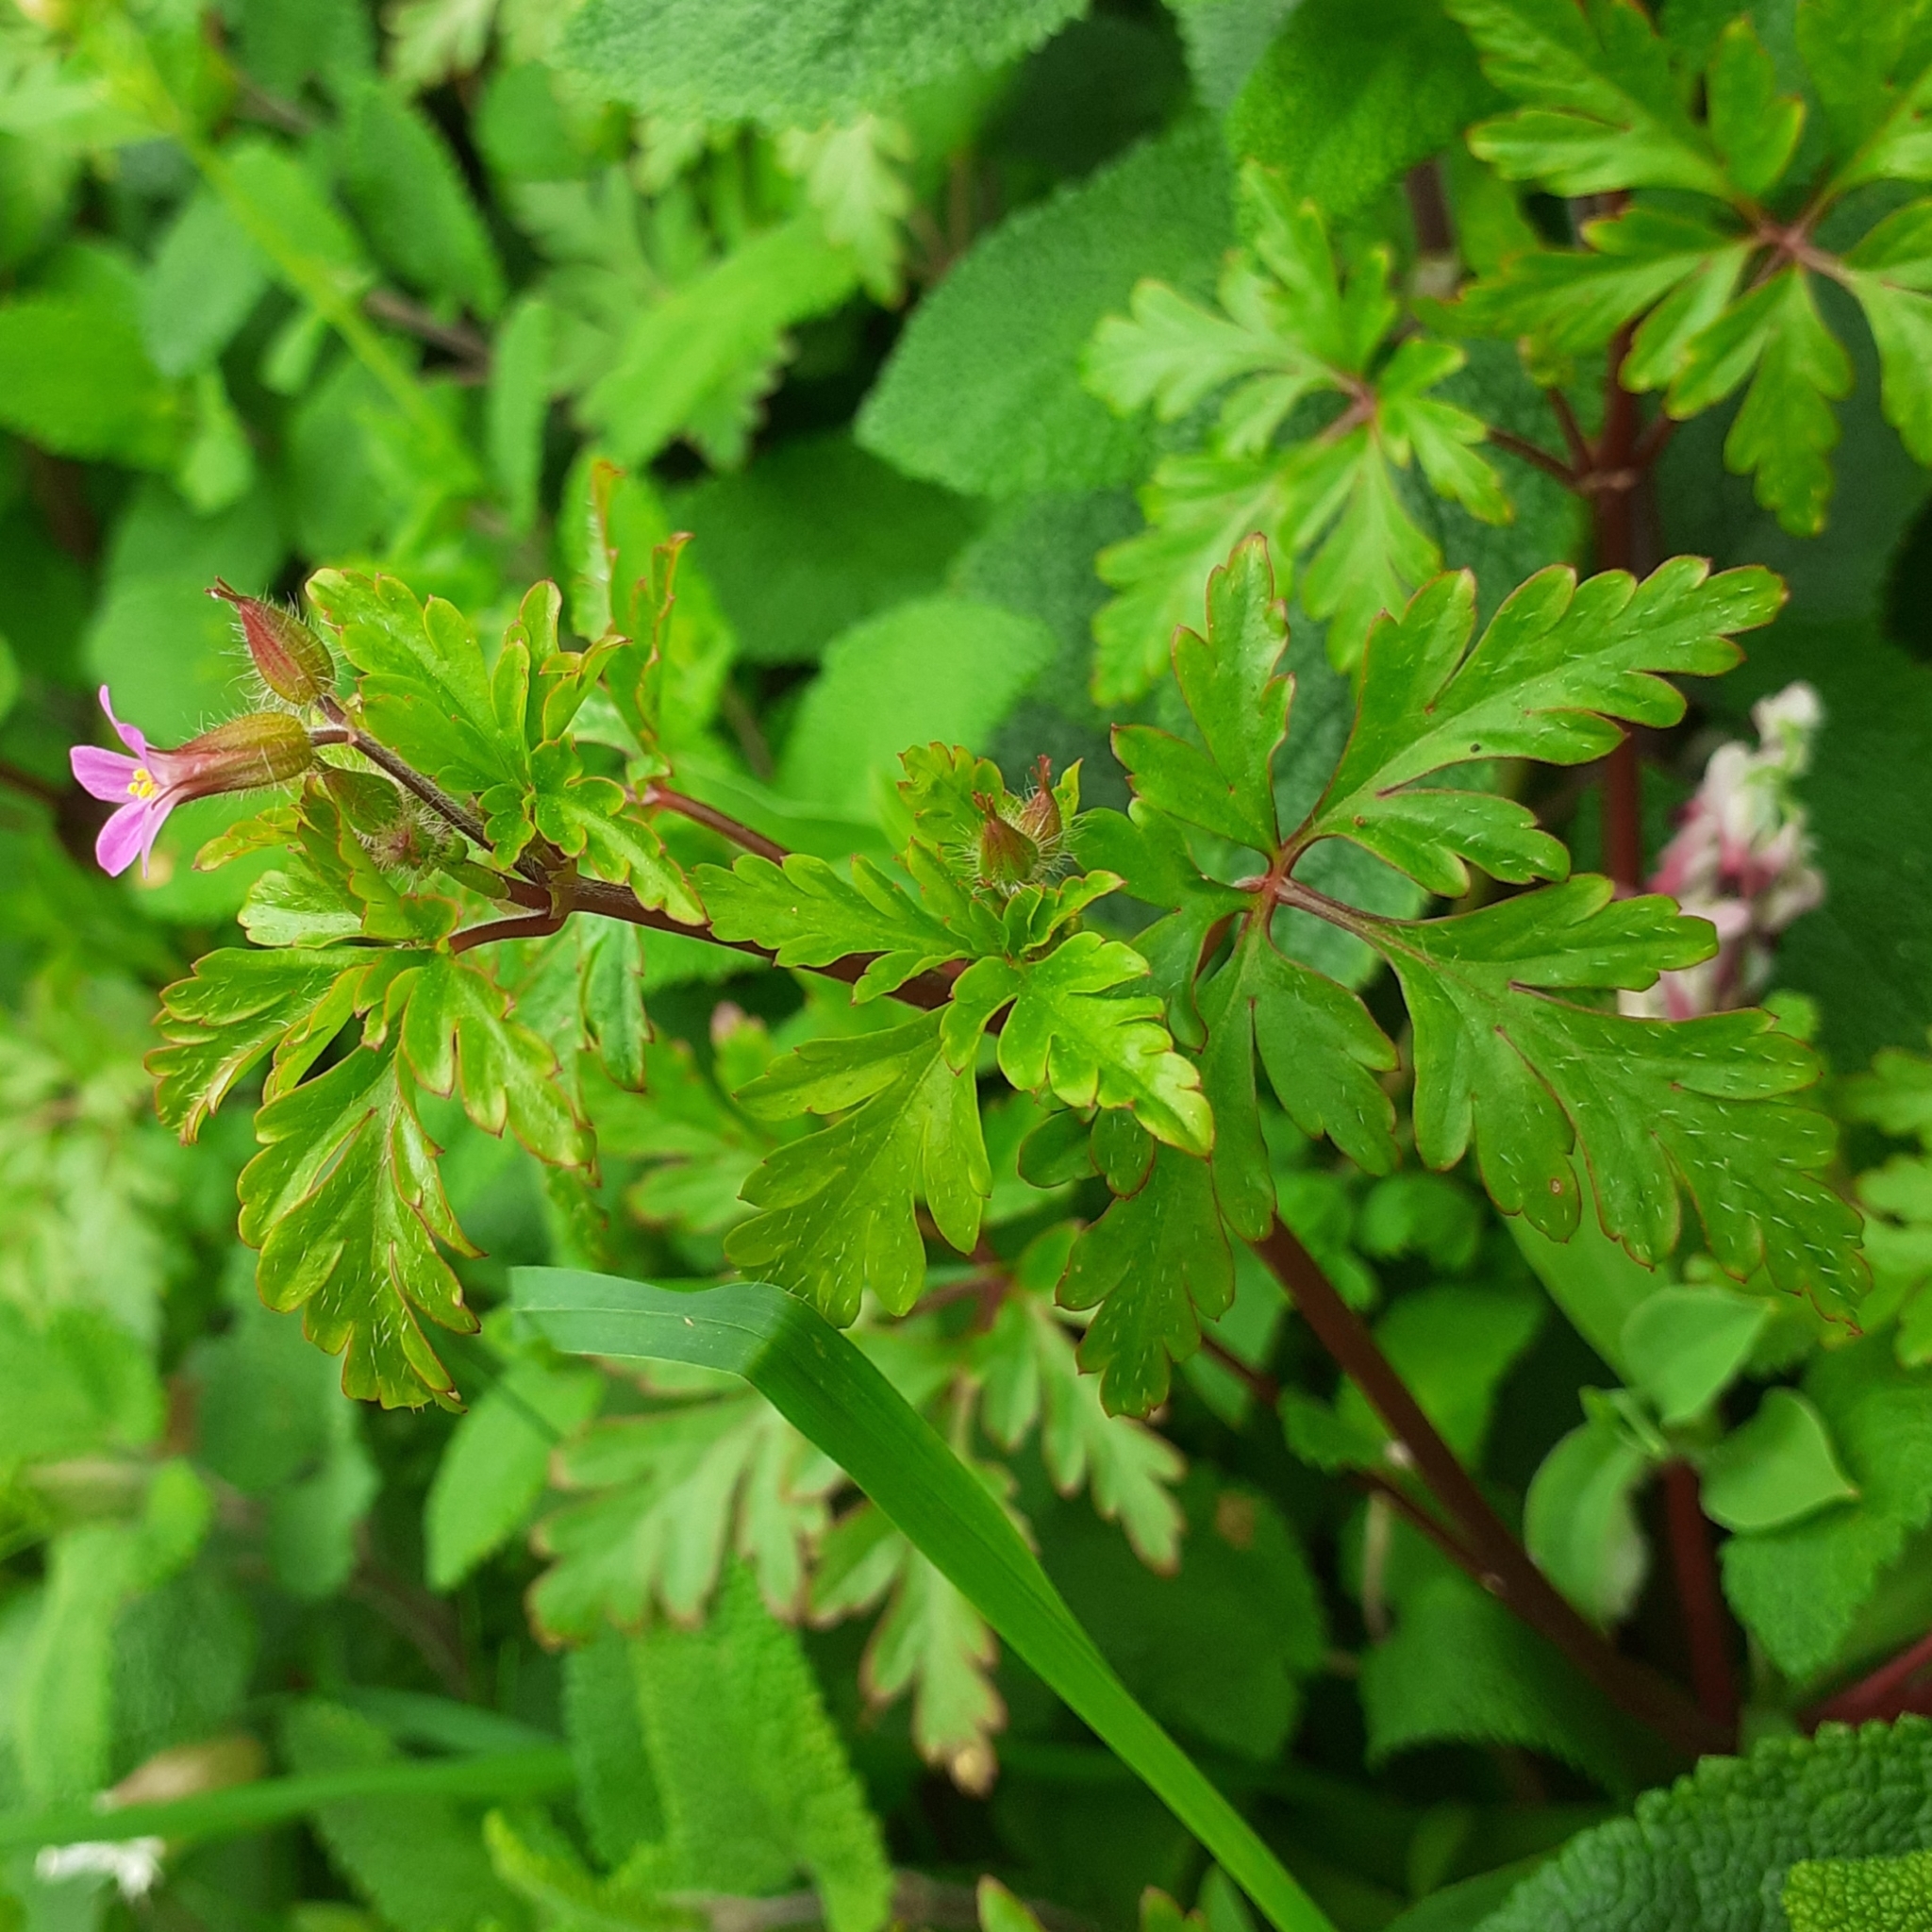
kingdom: Plantae
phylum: Tracheophyta
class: Magnoliopsida
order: Geraniales
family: Geraniaceae
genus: Geranium
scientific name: Geranium purpureum
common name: Little-robin
